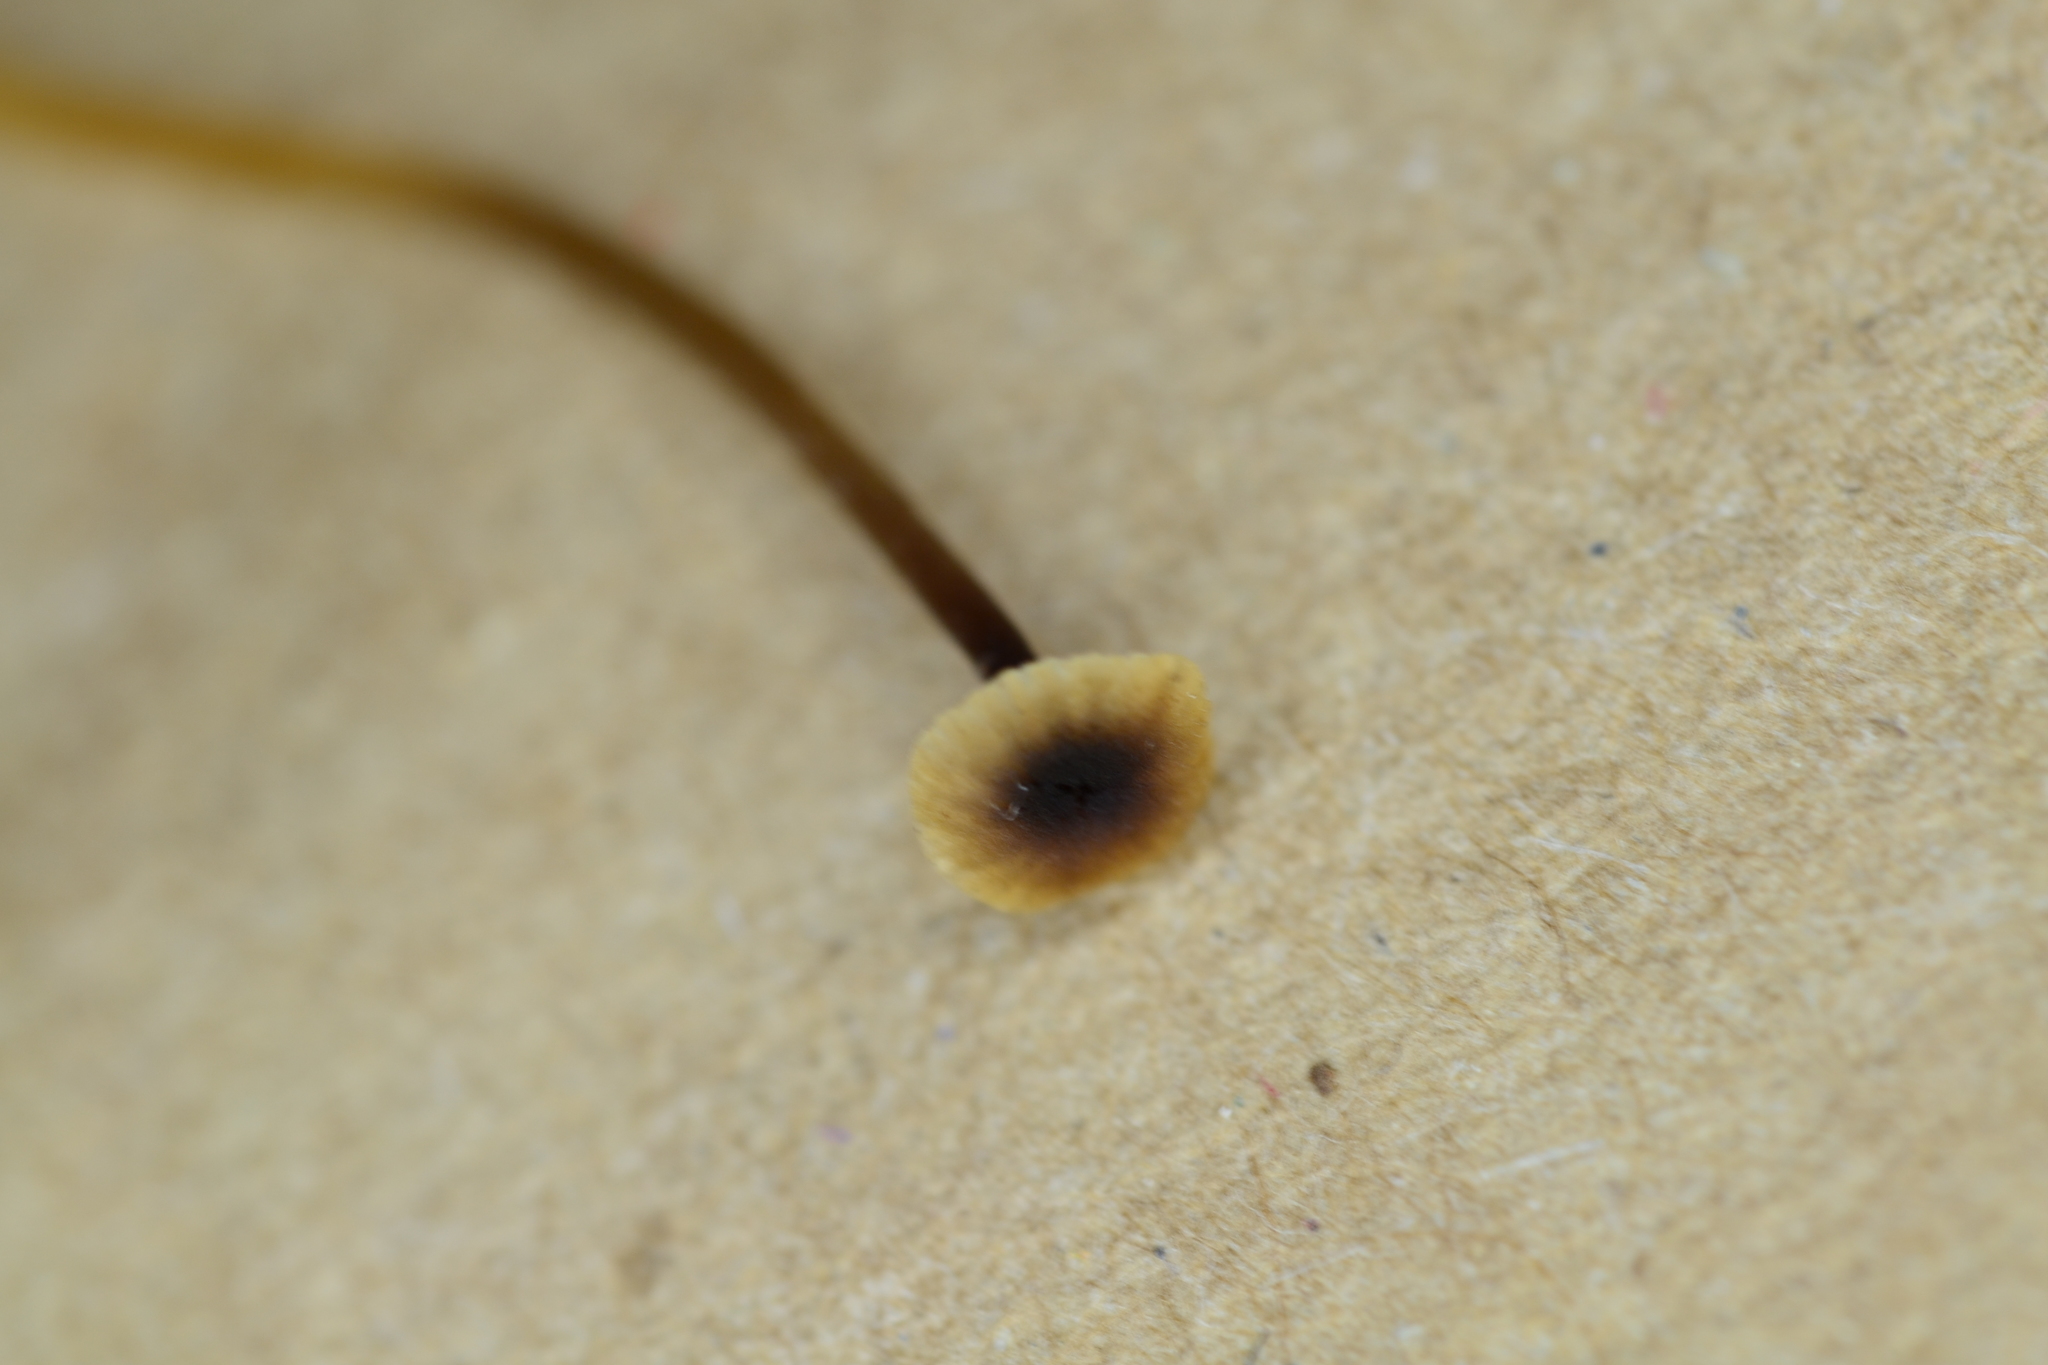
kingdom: Fungi
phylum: Basidiomycota
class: Agaricomycetes
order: Hymenochaetales
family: Rickenellaceae
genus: Rickenella
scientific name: Rickenella swartzii
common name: Collared mosscap
